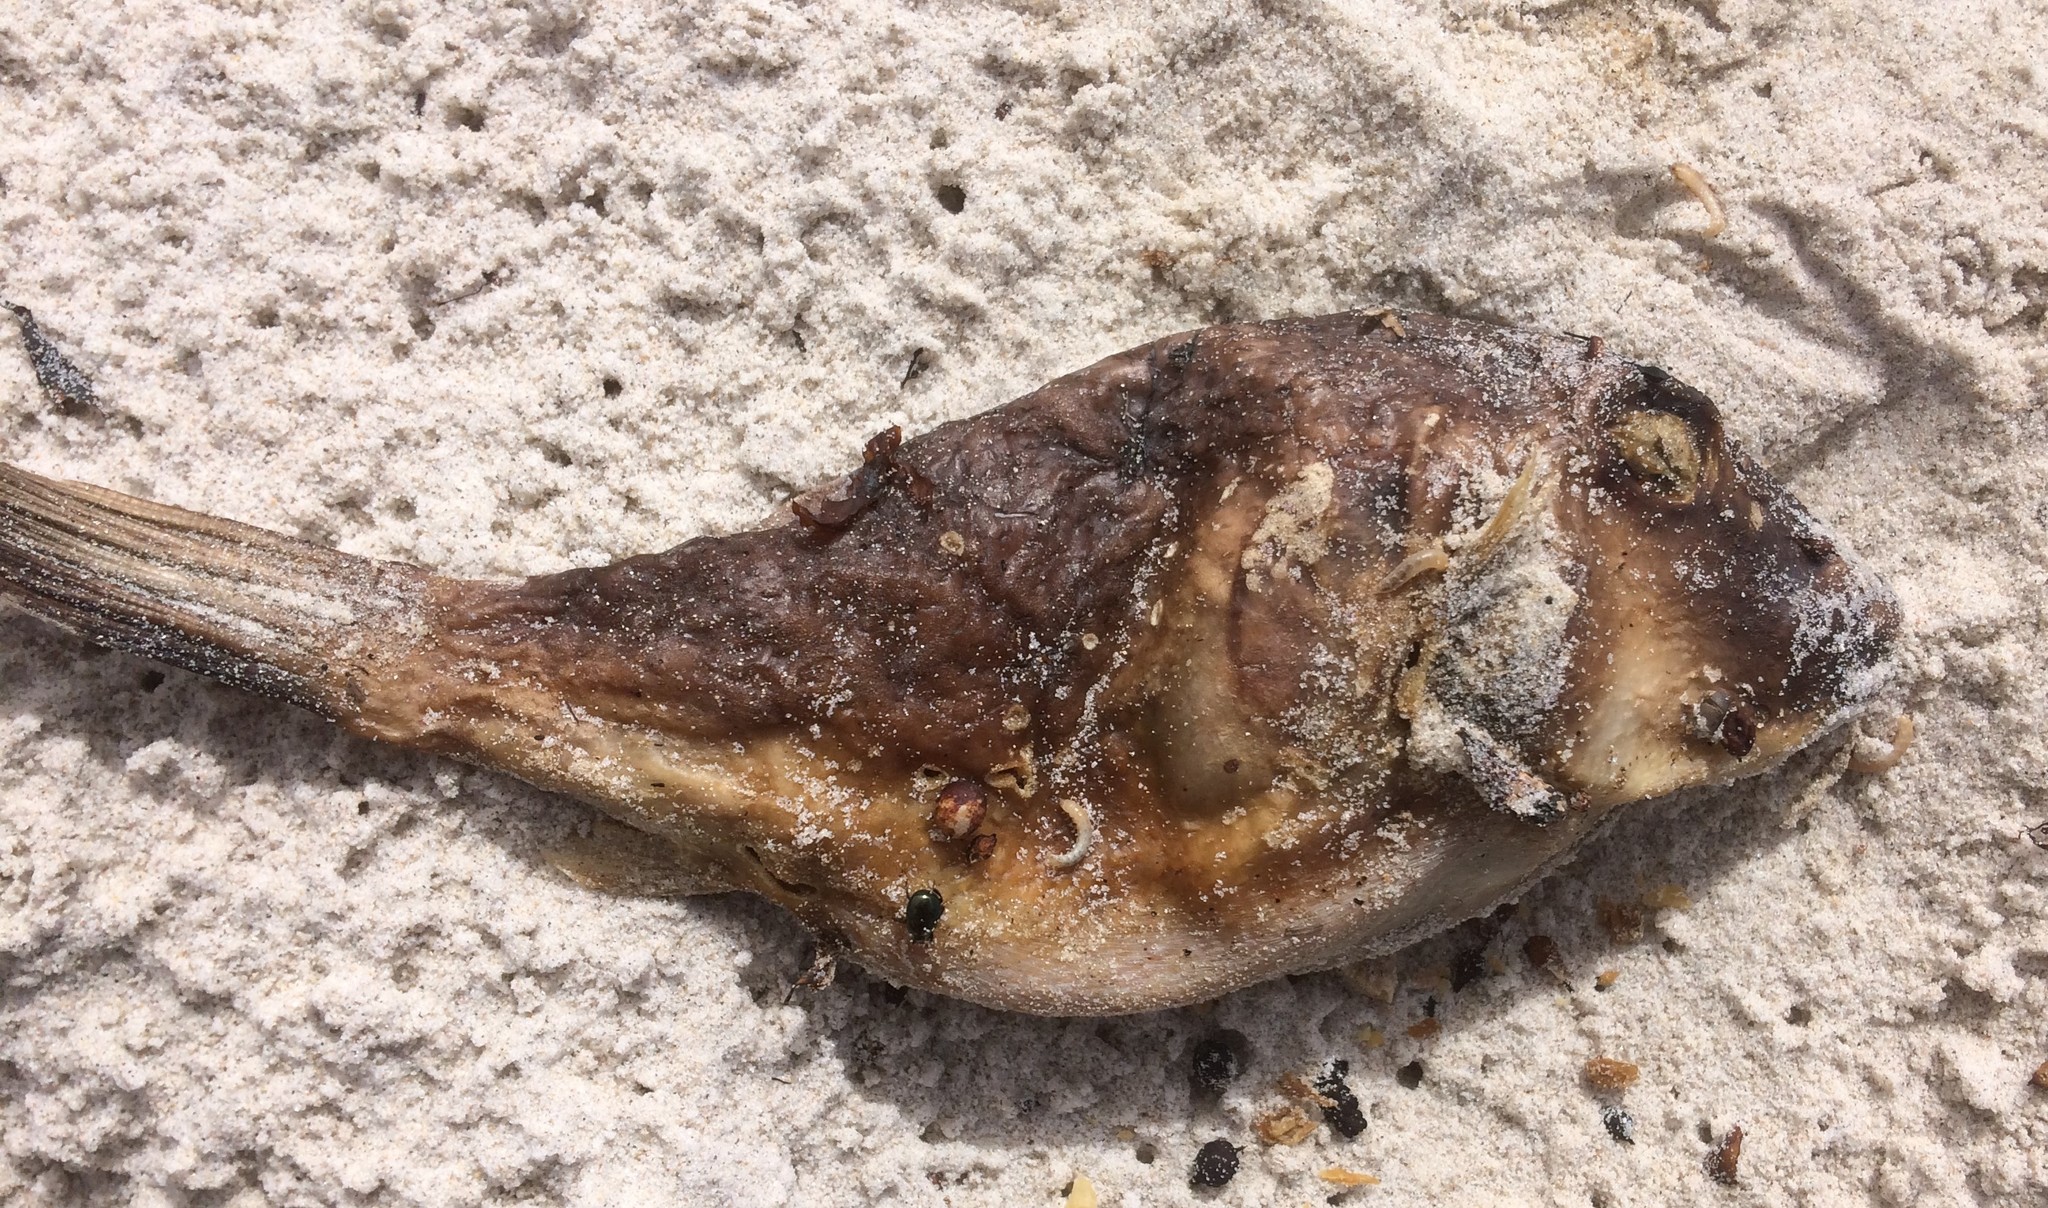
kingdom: Animalia
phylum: Chordata
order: Tetraodontiformes
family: Tetraodontidae
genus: Omegophora
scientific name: Omegophora armilla
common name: Ringed pufferfish
